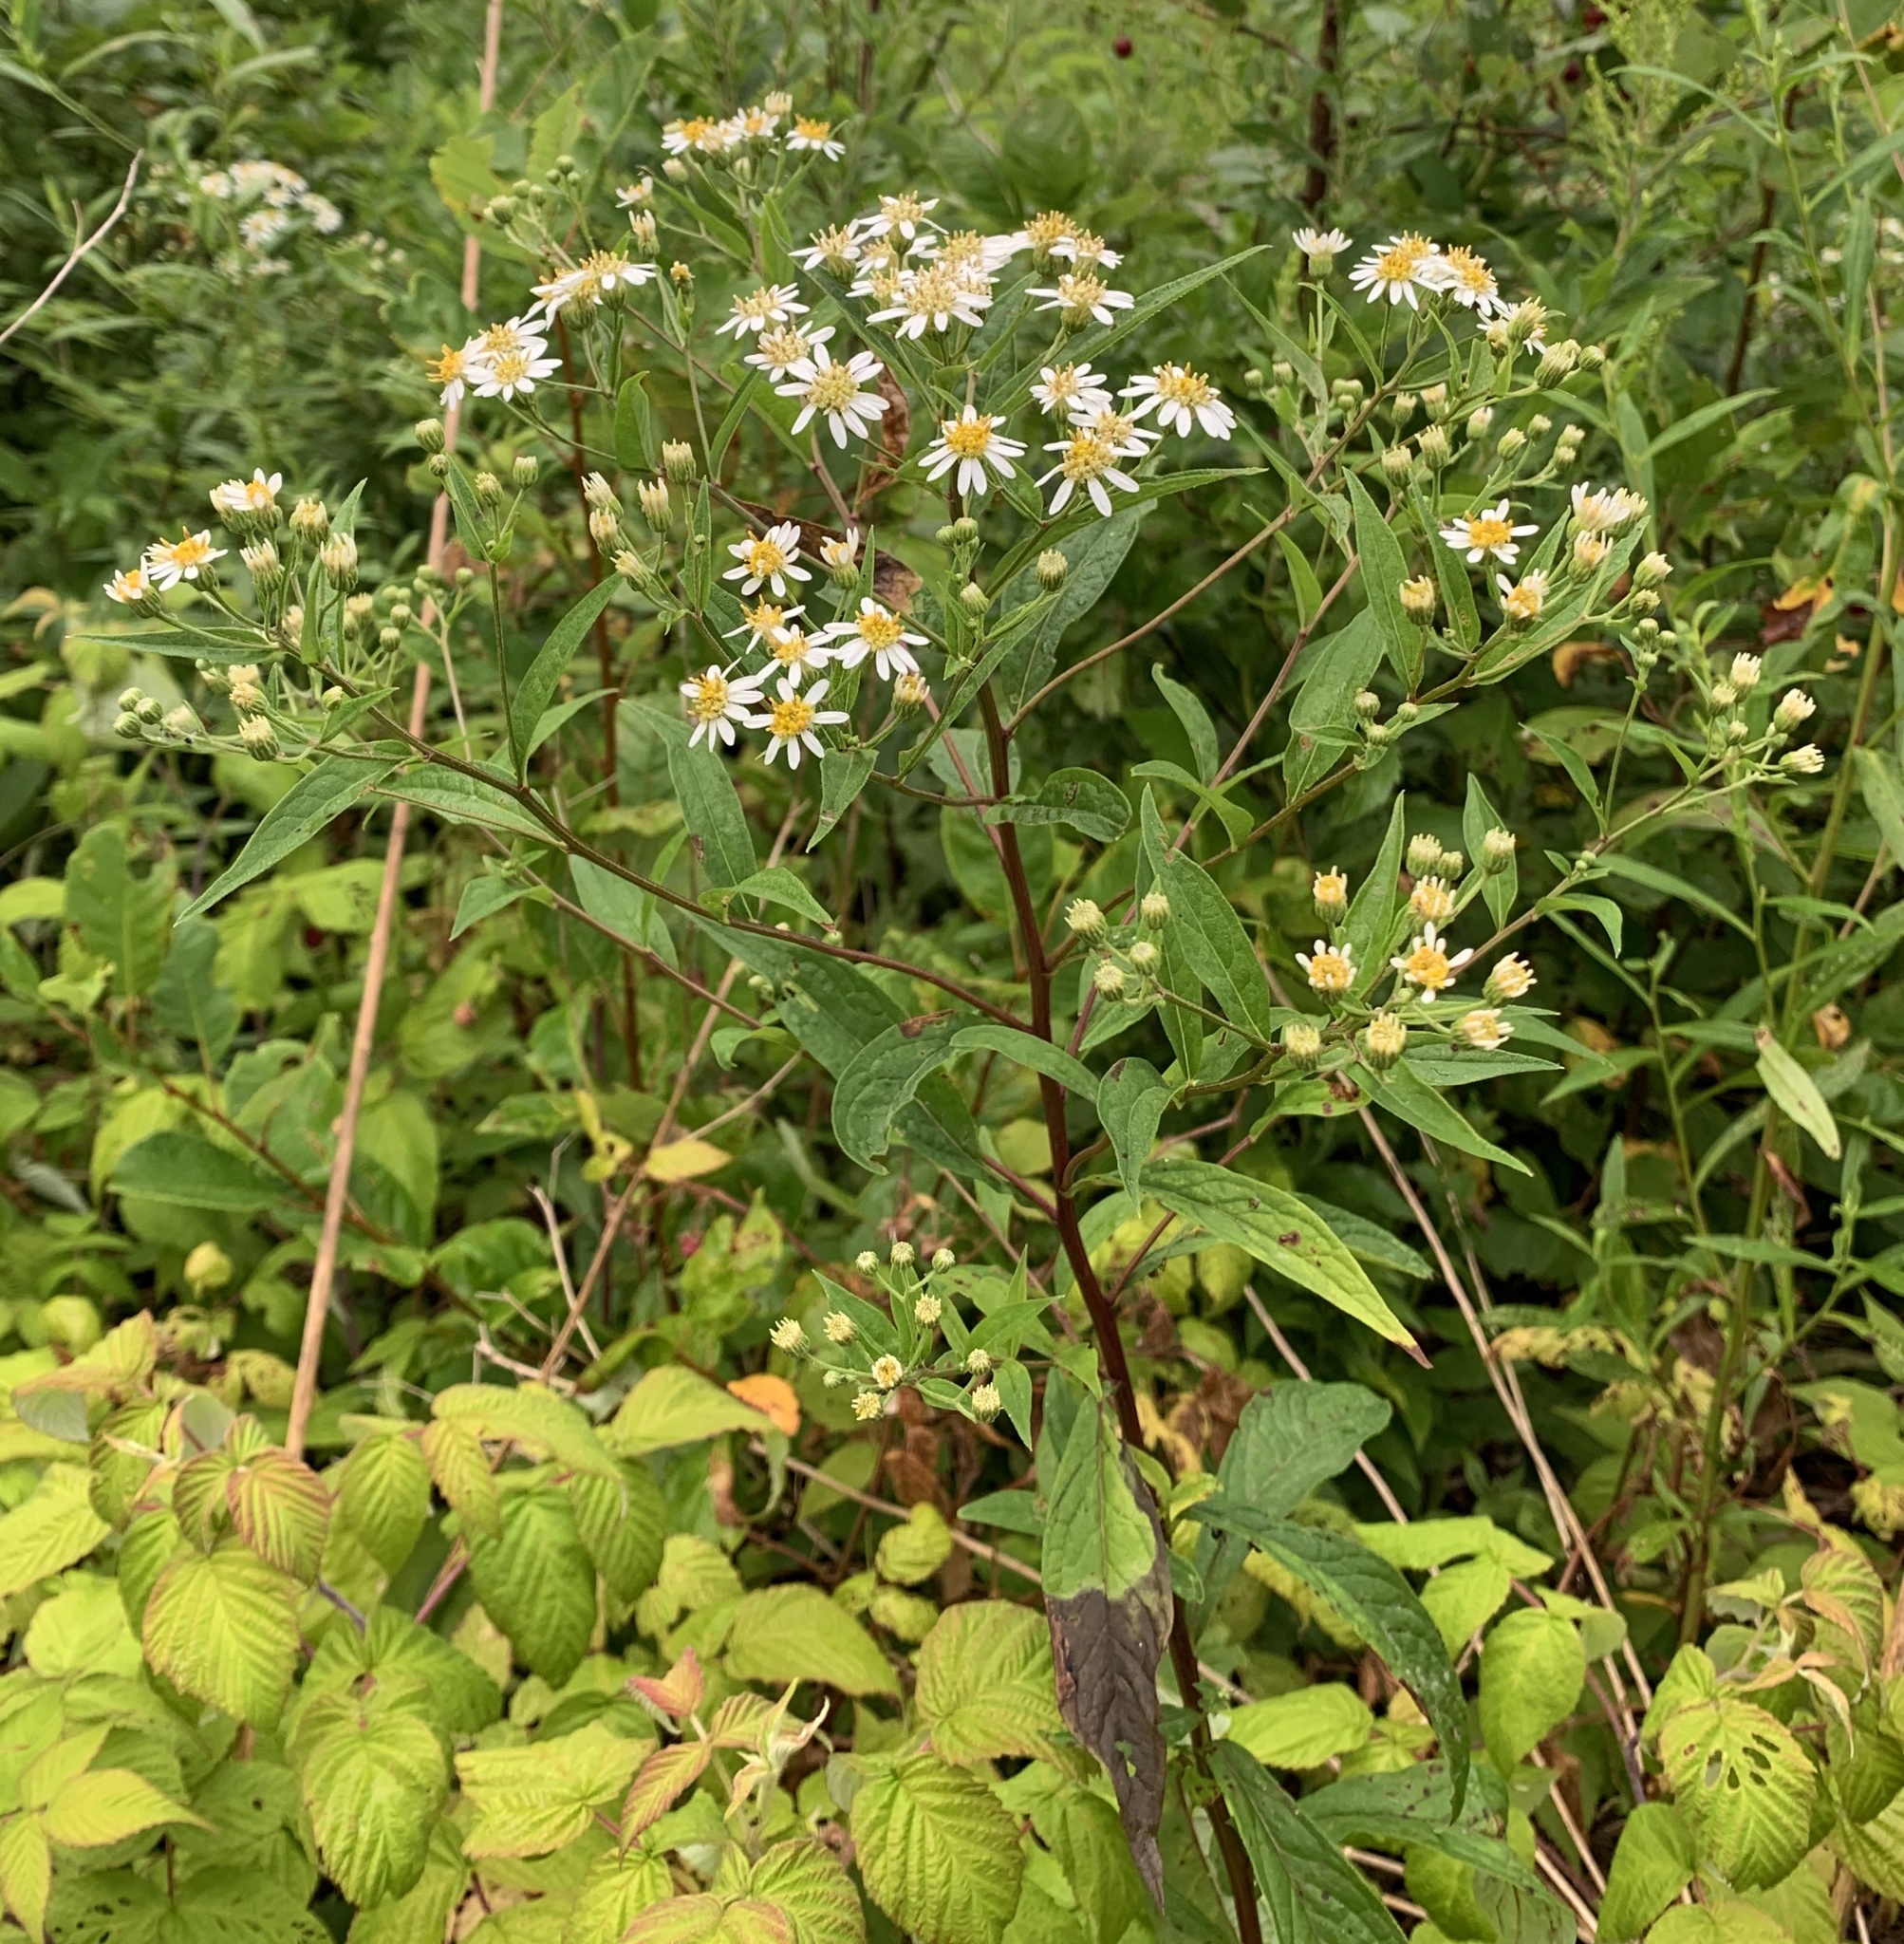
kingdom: Plantae
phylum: Tracheophyta
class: Magnoliopsida
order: Asterales
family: Asteraceae
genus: Doellingeria
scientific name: Doellingeria umbellata
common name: Flat-top white aster
